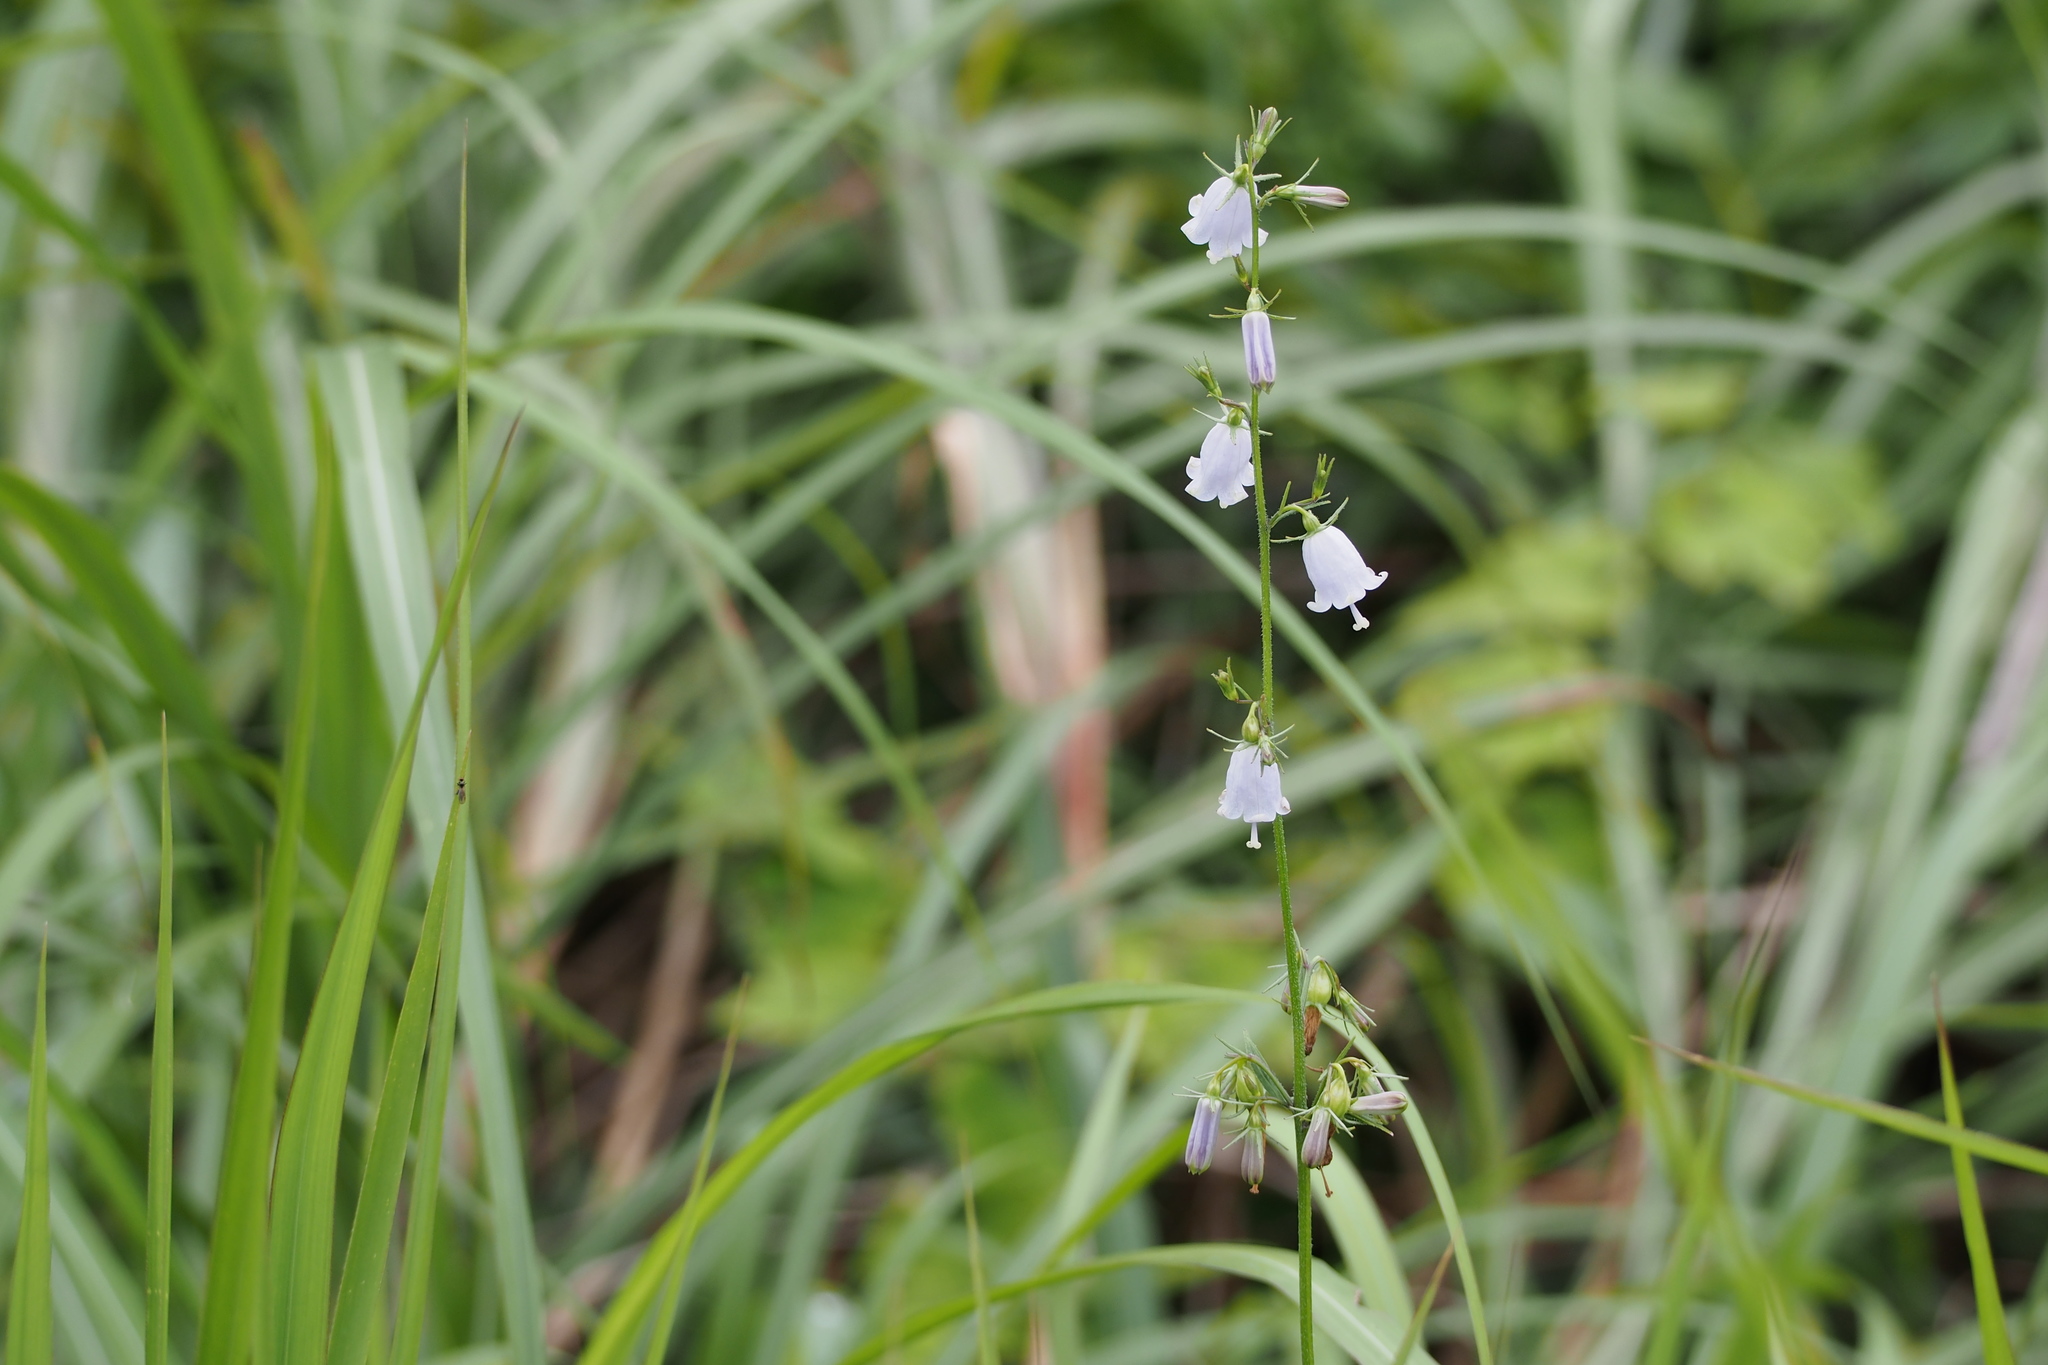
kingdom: Plantae
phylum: Tracheophyta
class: Magnoliopsida
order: Asterales
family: Campanulaceae
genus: Adenophora
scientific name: Adenophora triphylla
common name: Giant-bellflower
